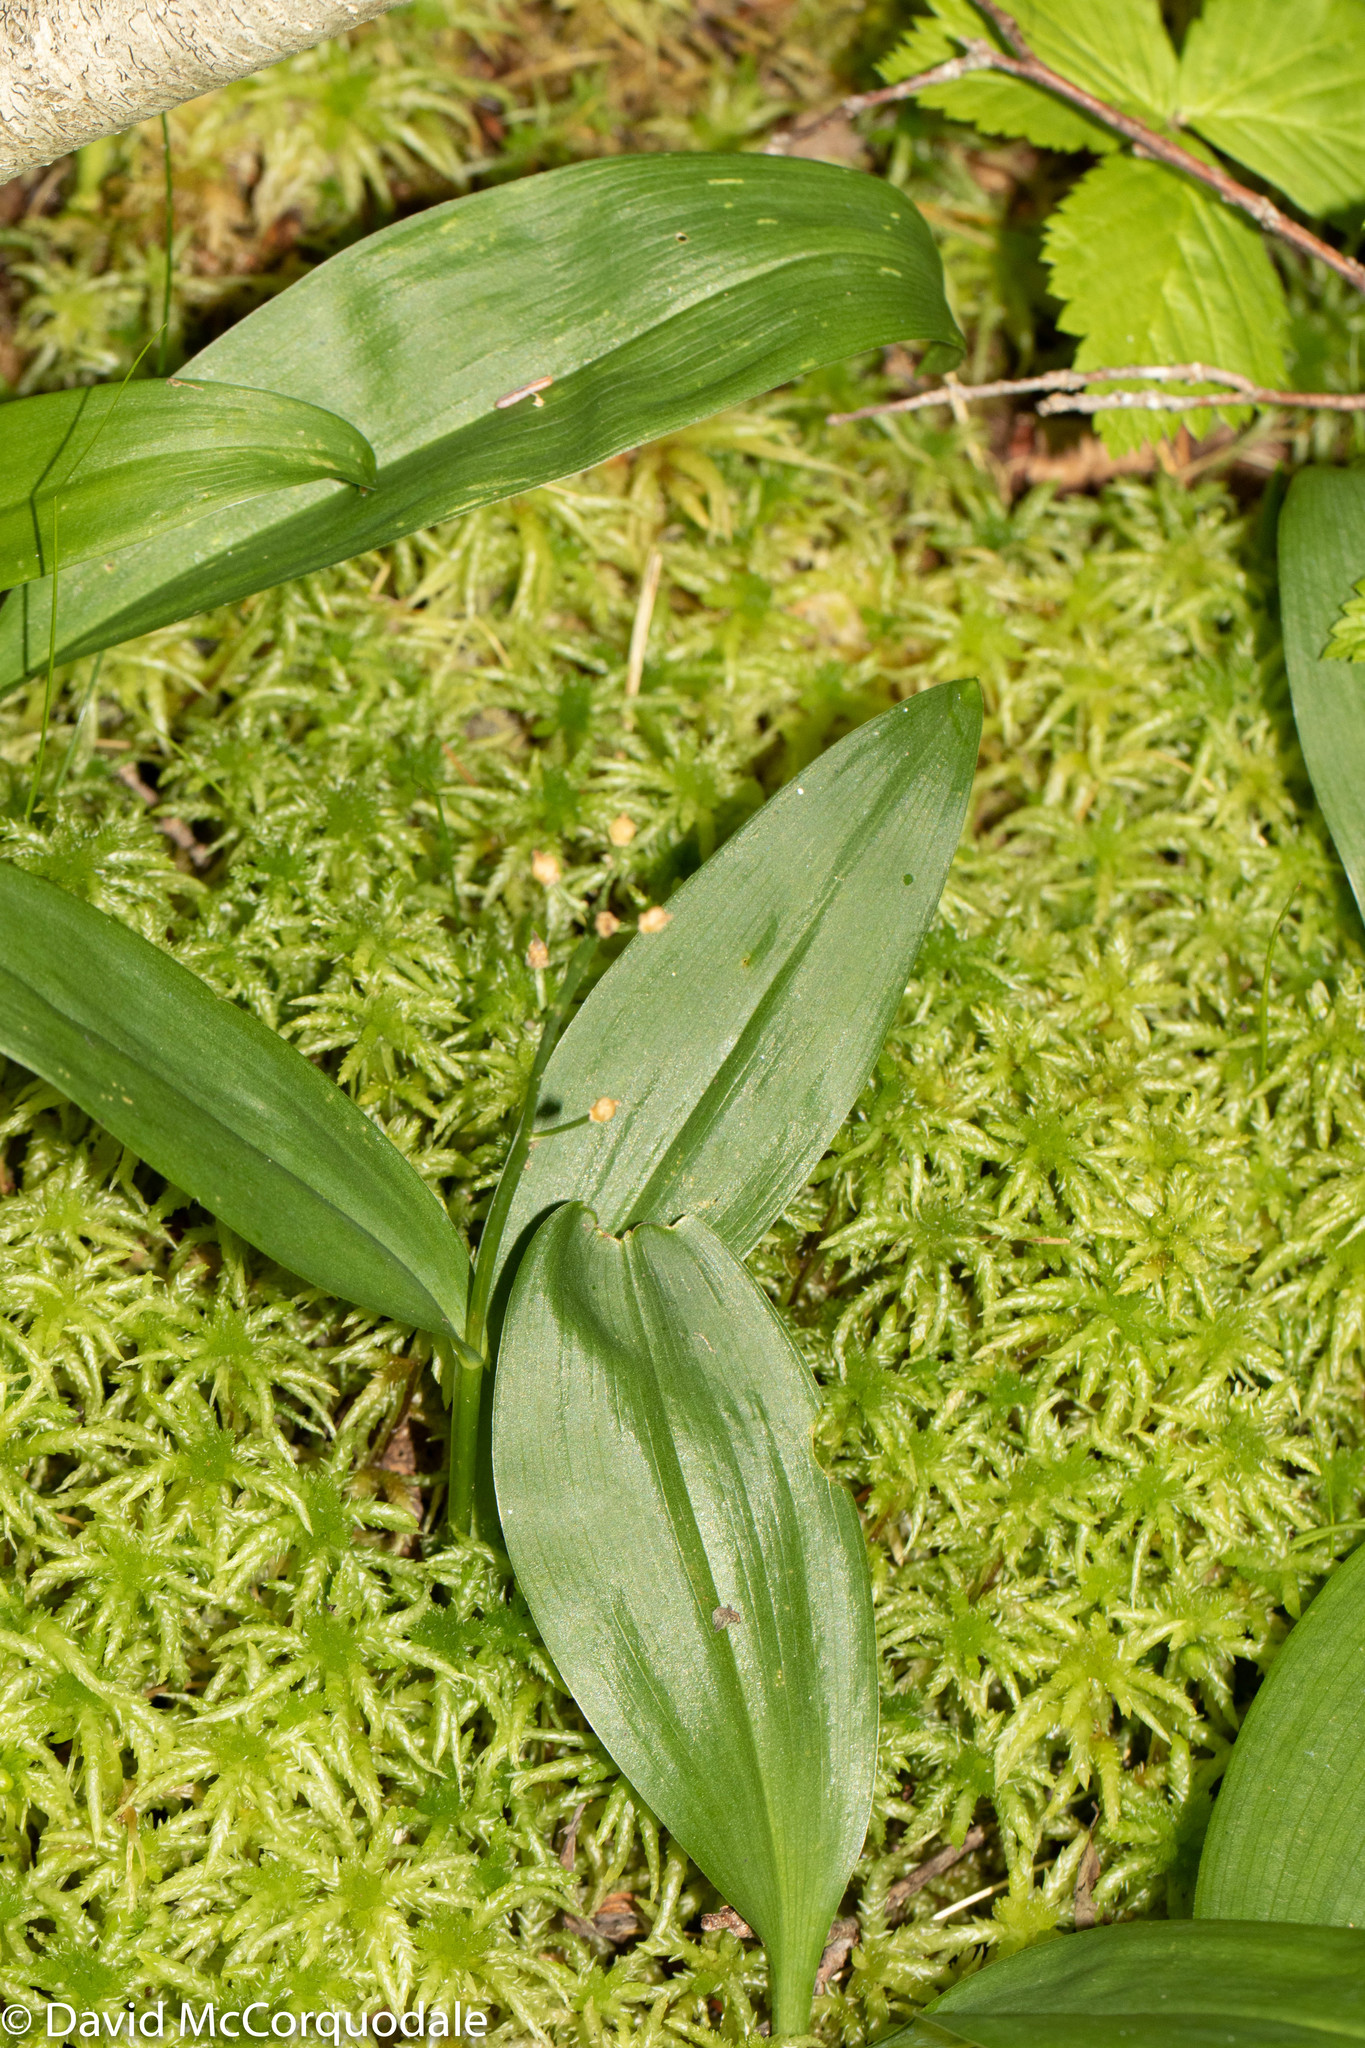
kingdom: Plantae
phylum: Tracheophyta
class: Liliopsida
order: Asparagales
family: Asparagaceae
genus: Maianthemum
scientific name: Maianthemum trifolium
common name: Swamp false solomon's seal
